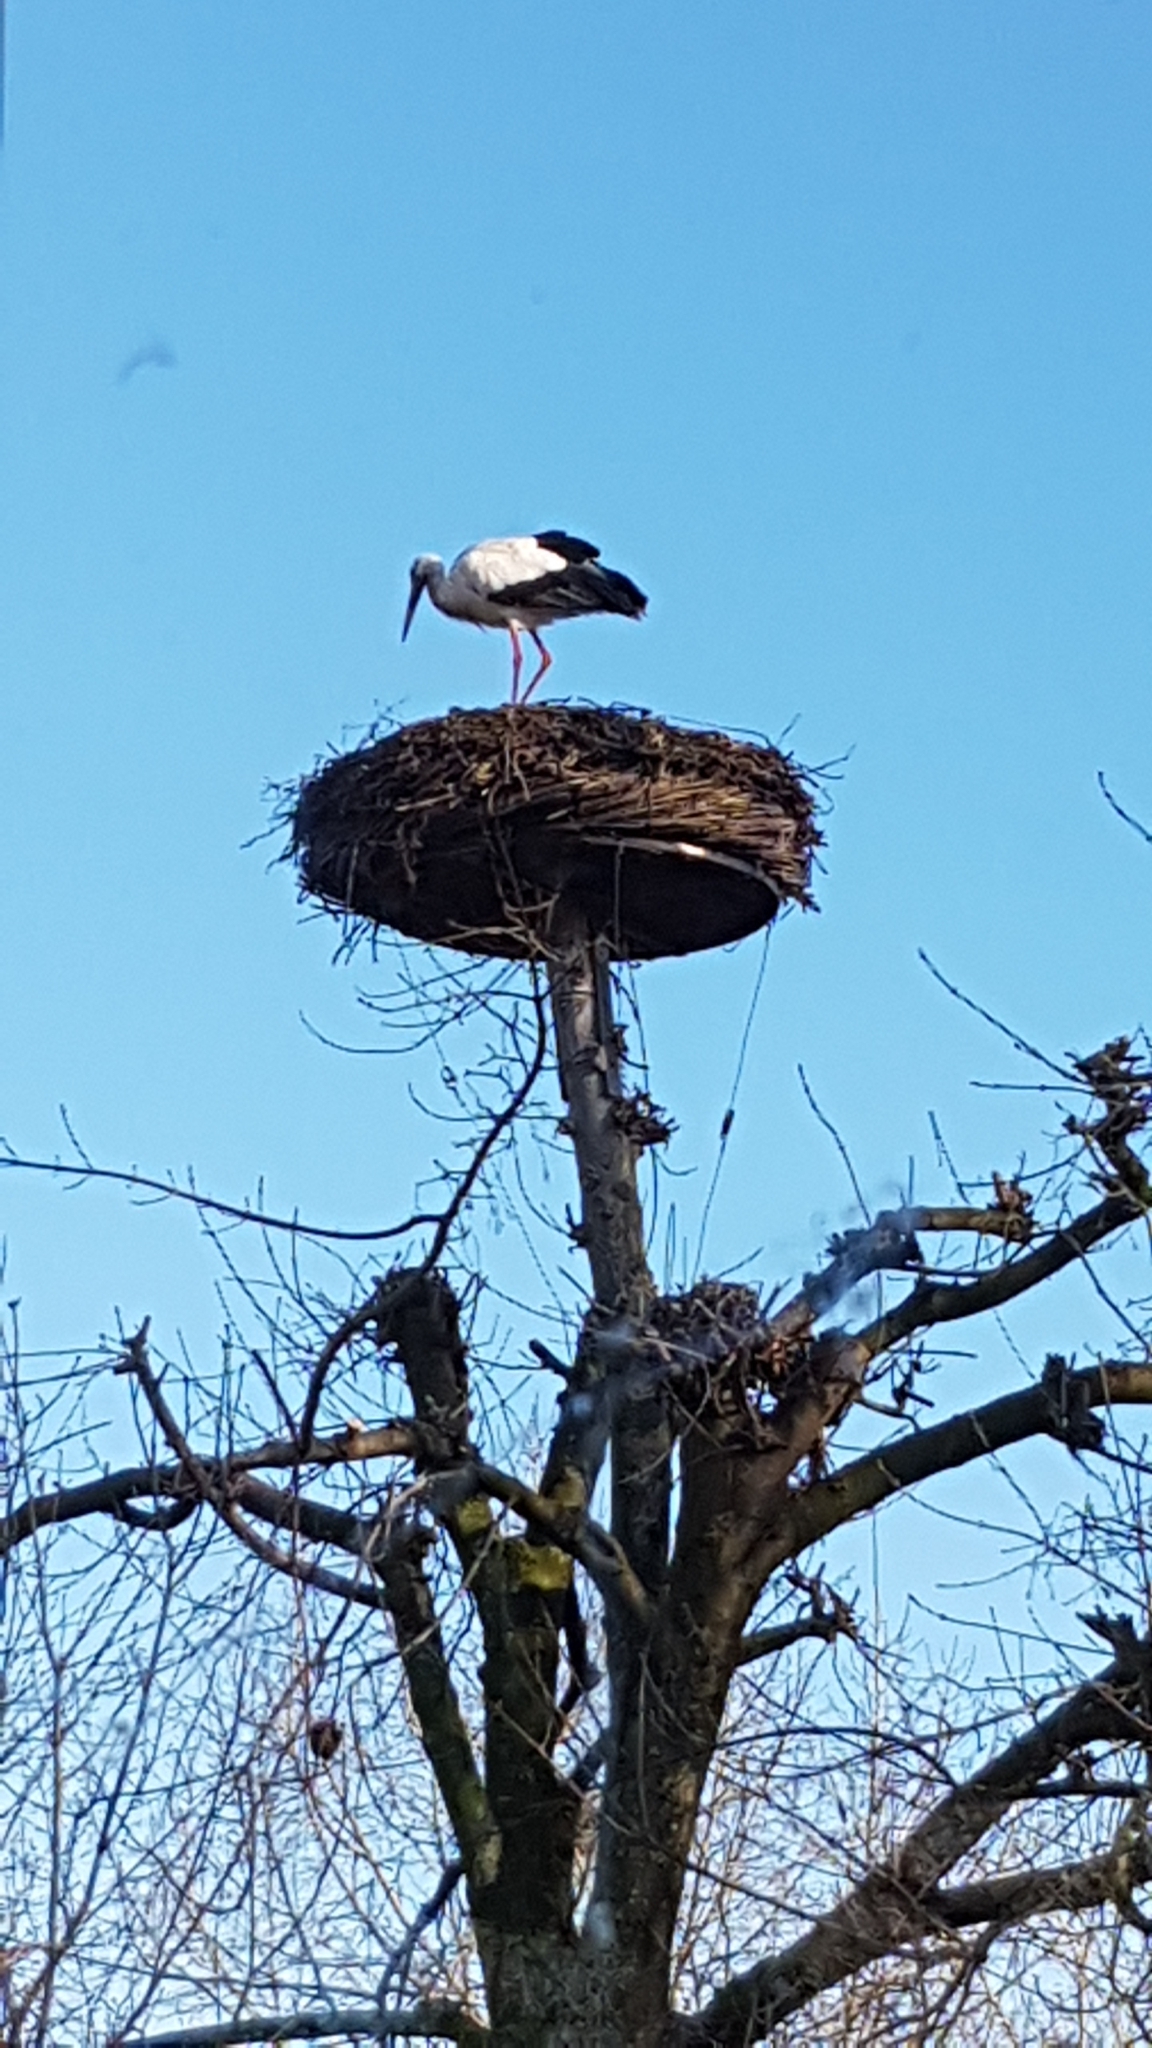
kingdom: Animalia
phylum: Chordata
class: Aves
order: Ciconiiformes
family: Ciconiidae
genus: Ciconia
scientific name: Ciconia ciconia
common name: White stork
